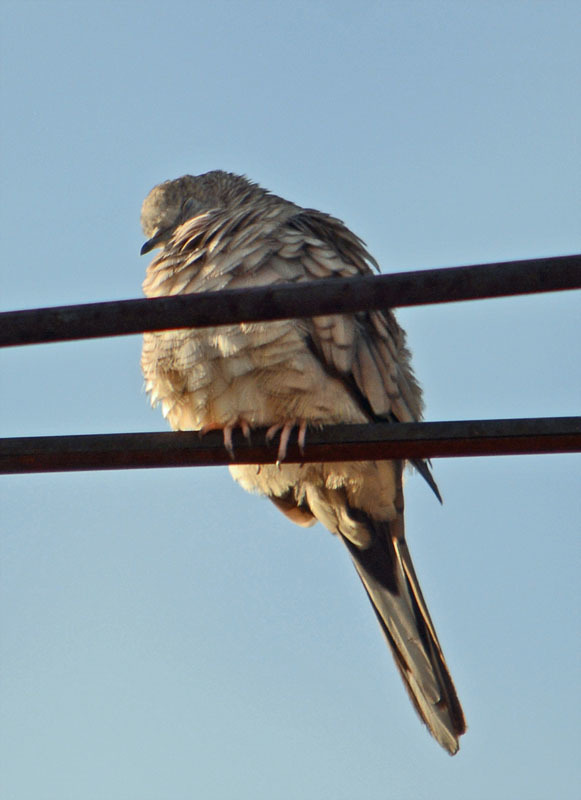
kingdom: Animalia
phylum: Chordata
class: Aves
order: Columbiformes
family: Columbidae
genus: Columbina
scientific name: Columbina inca
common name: Inca dove
